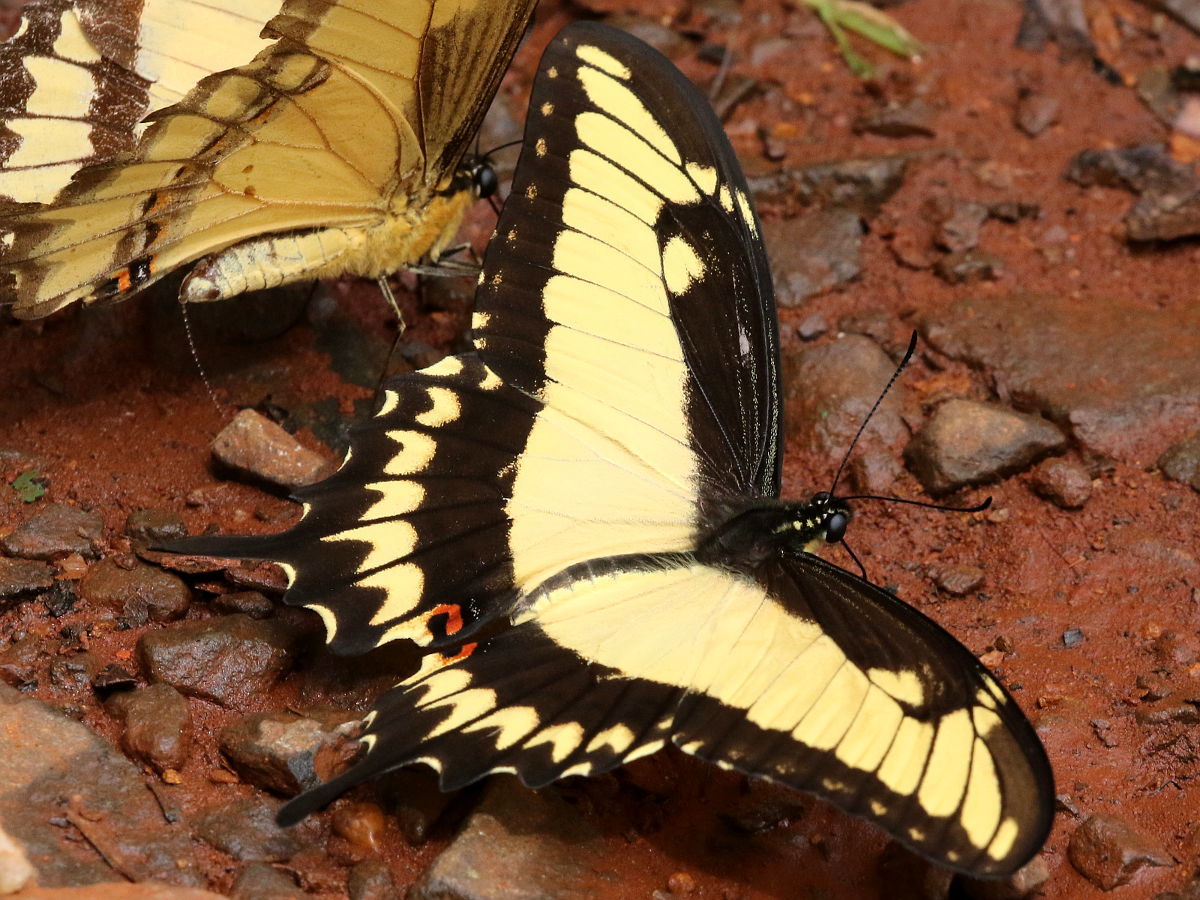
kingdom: Animalia
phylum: Arthropoda
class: Insecta
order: Lepidoptera
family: Papilionidae
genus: Papilio
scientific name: Papilio astyalus
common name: Astyalus swallowtail
